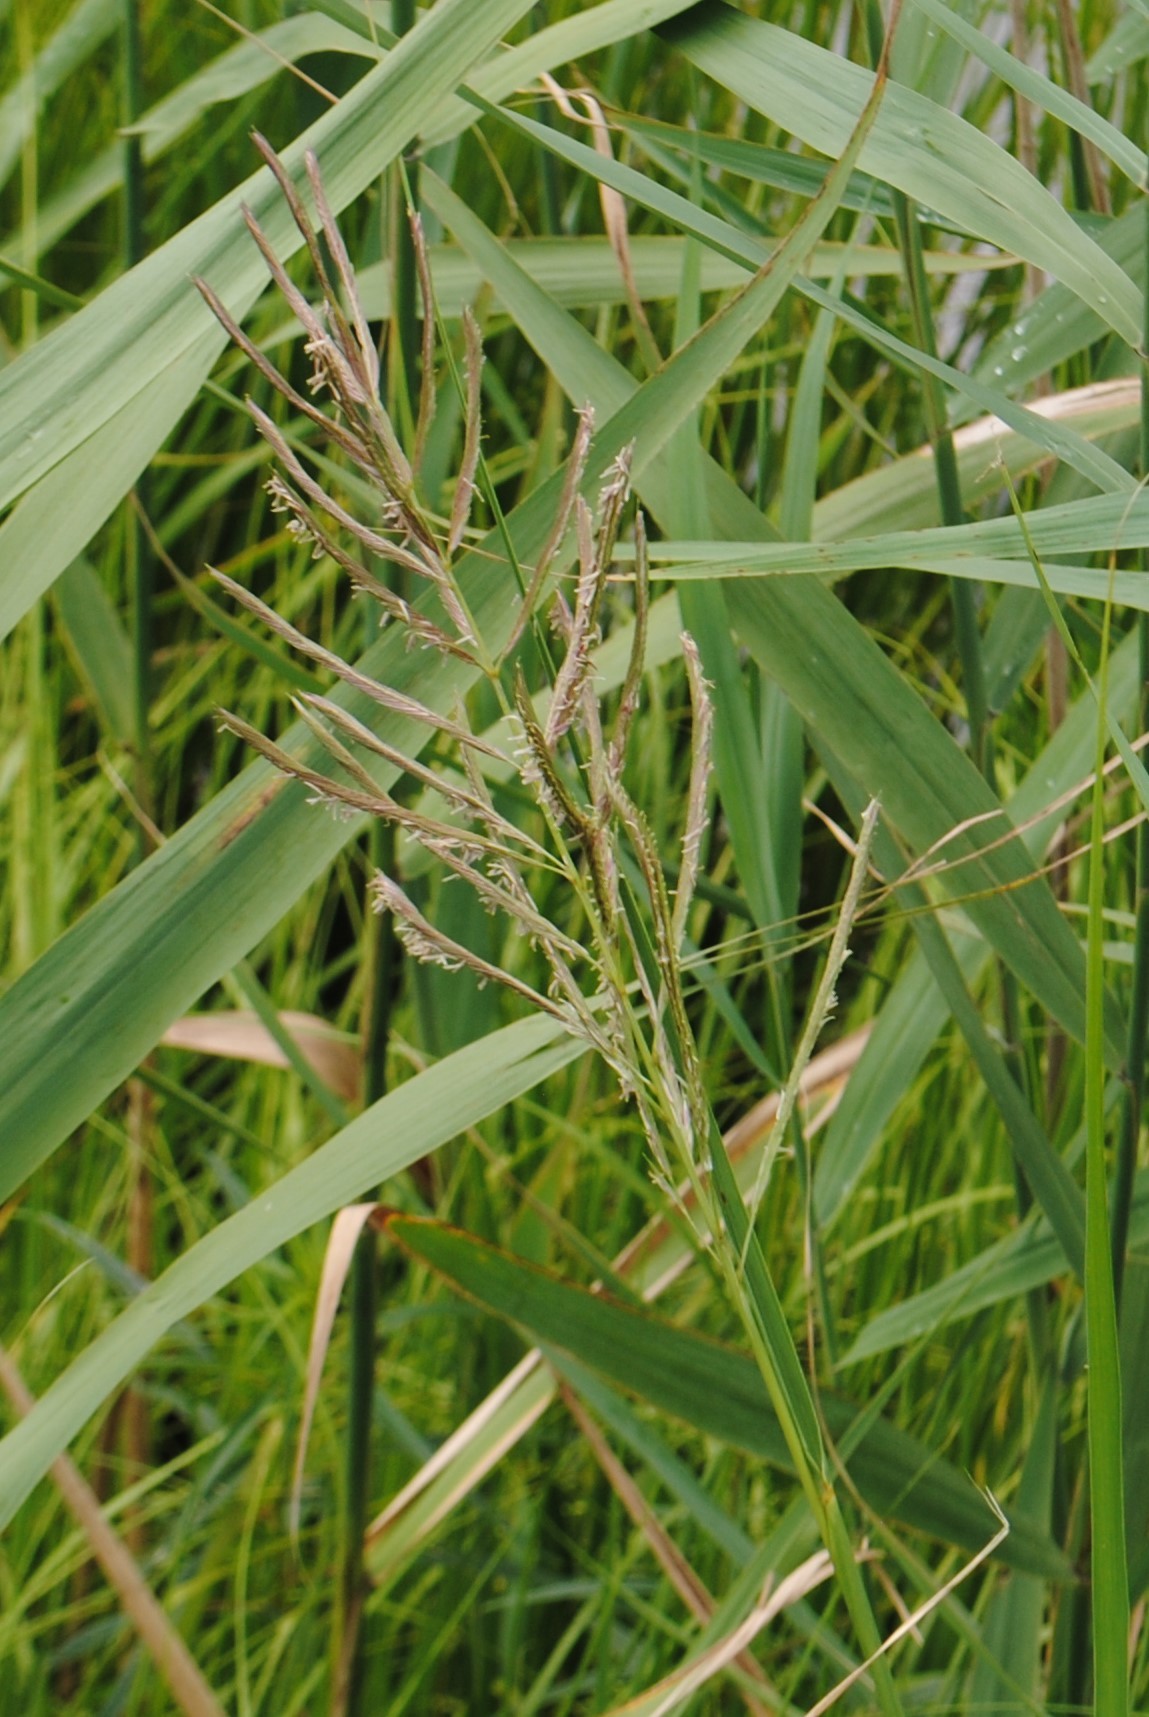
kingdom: Plantae
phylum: Tracheophyta
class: Liliopsida
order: Poales
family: Poaceae
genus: Sporobolus
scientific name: Sporobolus cynosuroides
